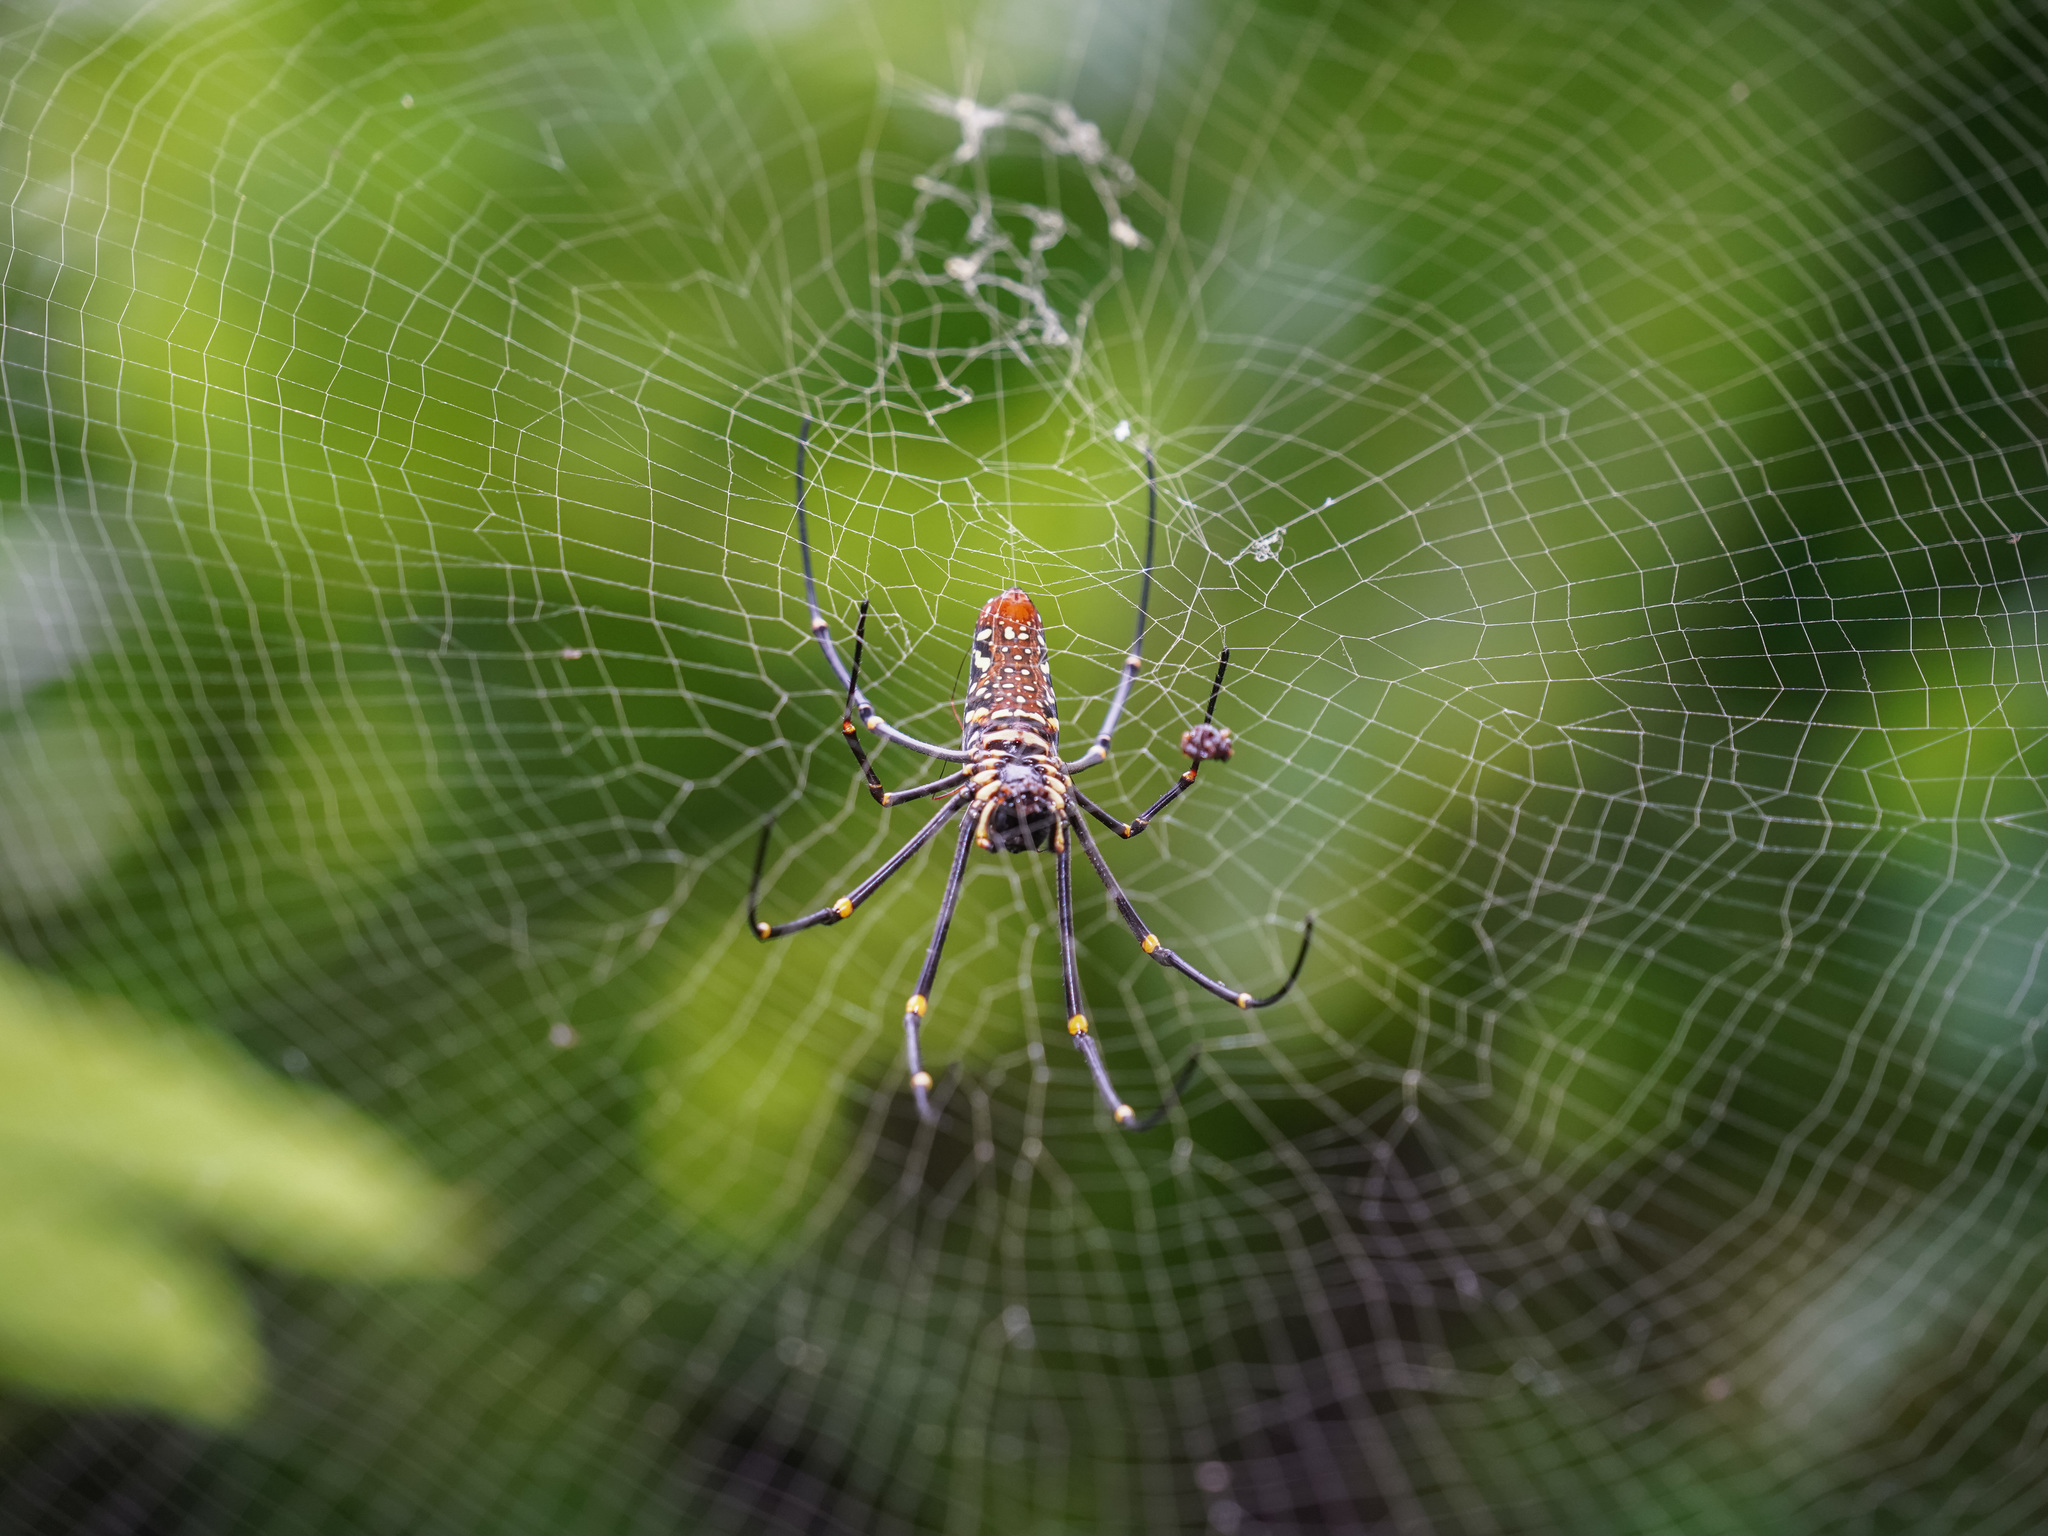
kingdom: Animalia
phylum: Arthropoda
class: Arachnida
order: Araneae
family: Araneidae
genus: Nephila
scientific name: Nephila pilipes
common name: Giant golden orb weaver
